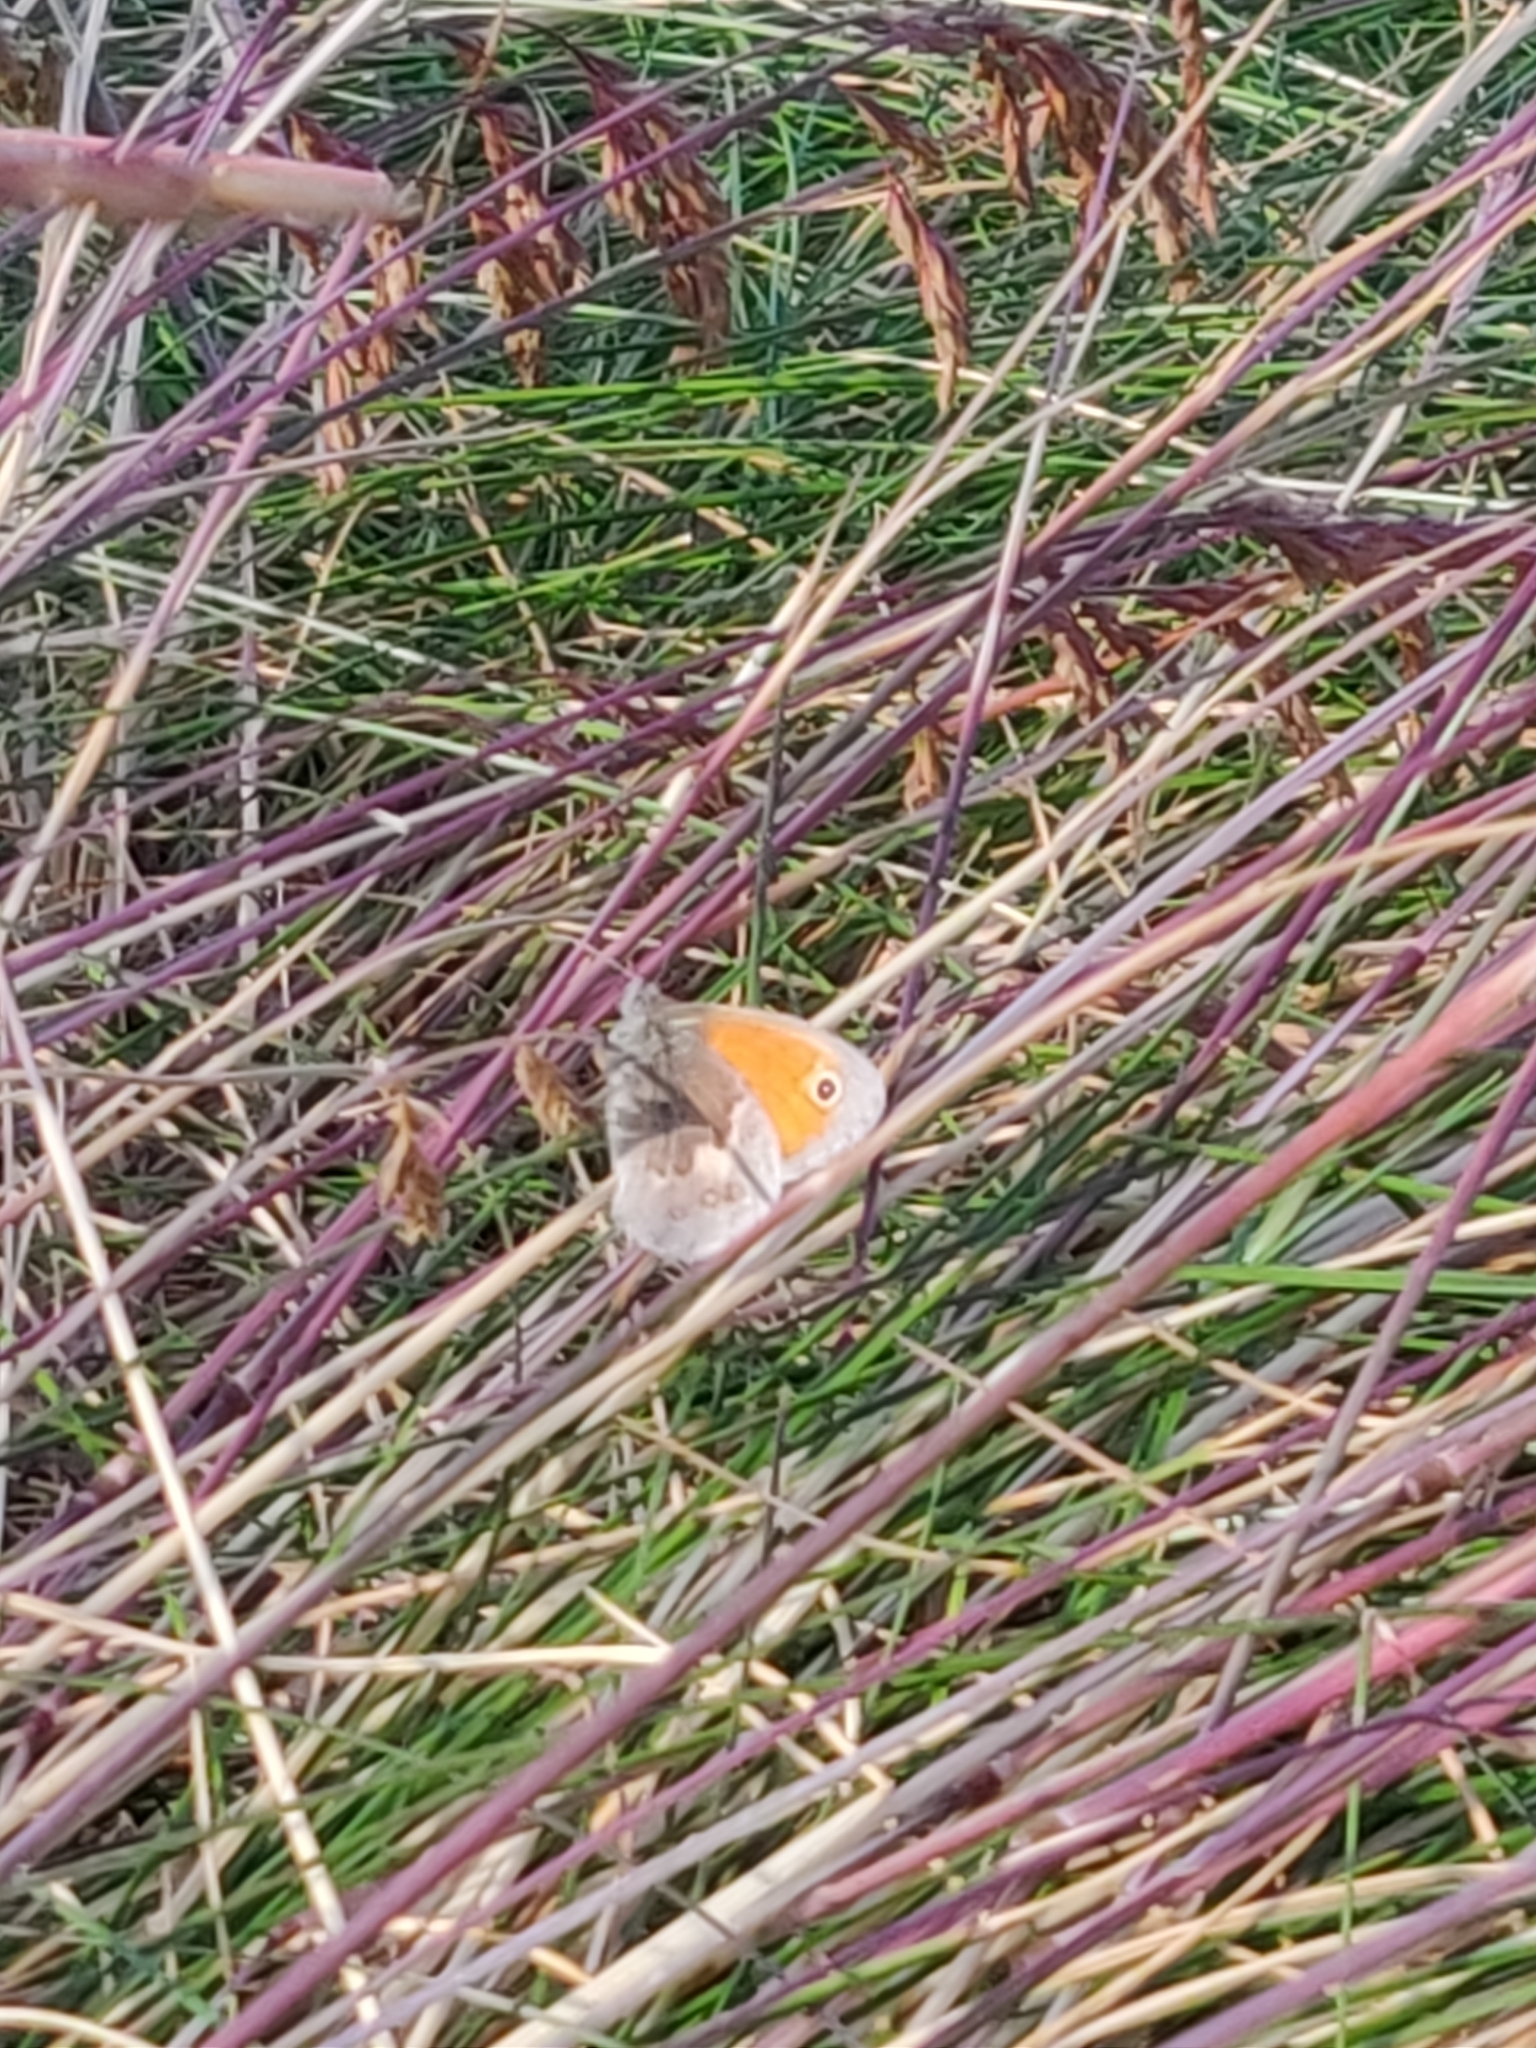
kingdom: Animalia
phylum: Arthropoda
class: Insecta
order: Lepidoptera
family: Nymphalidae
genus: Coenonympha
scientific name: Coenonympha pamphilus
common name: Small heath
